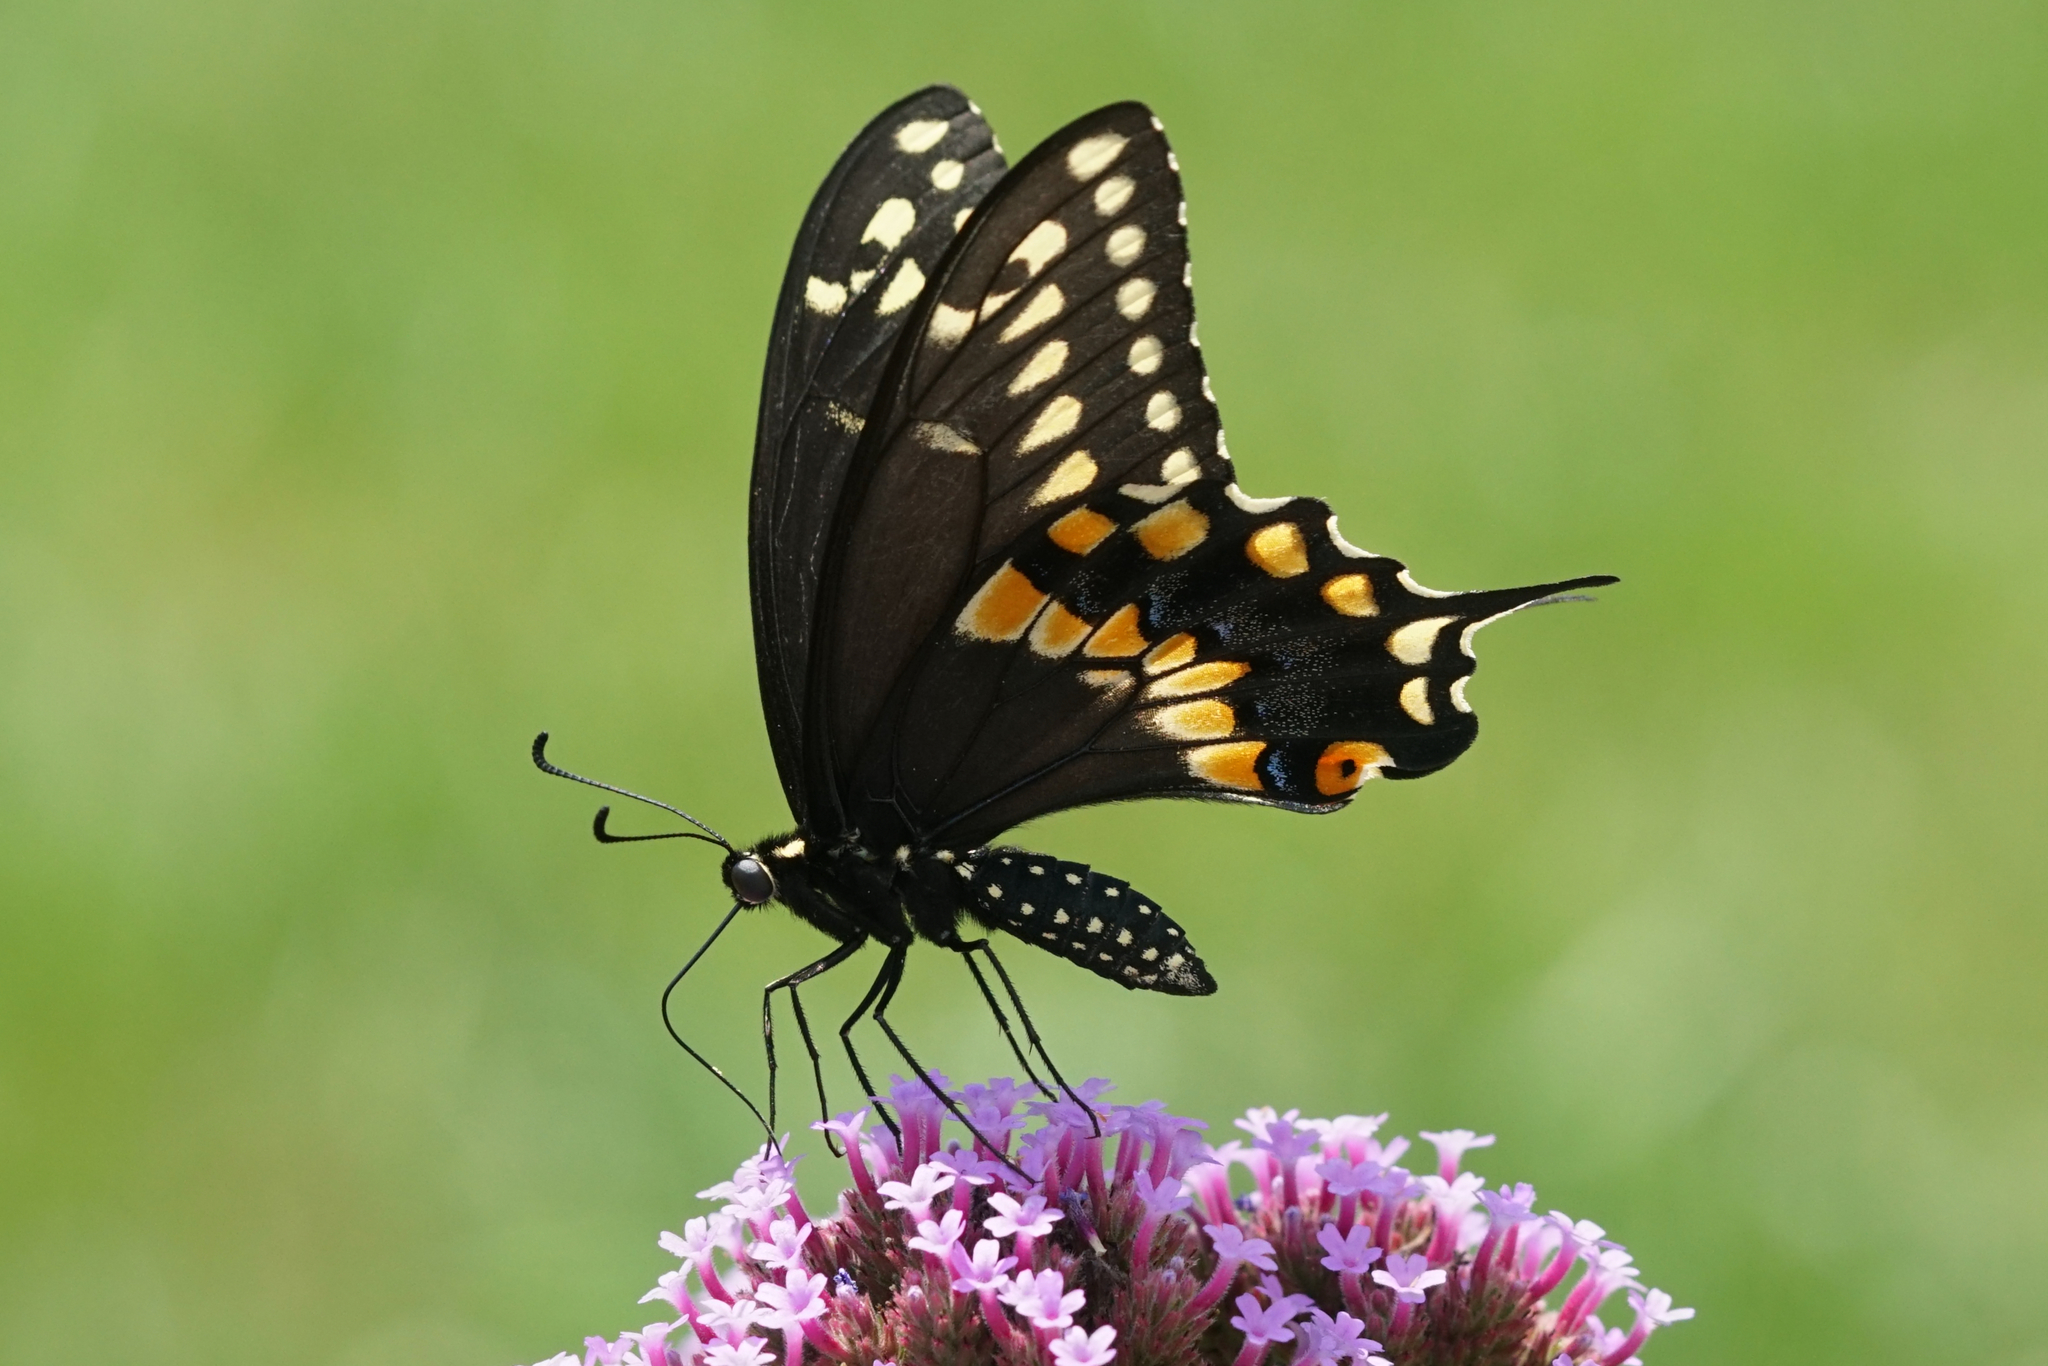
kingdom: Animalia
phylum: Arthropoda
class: Insecta
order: Lepidoptera
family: Papilionidae
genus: Papilio
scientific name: Papilio polyxenes
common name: Black swallowtail
